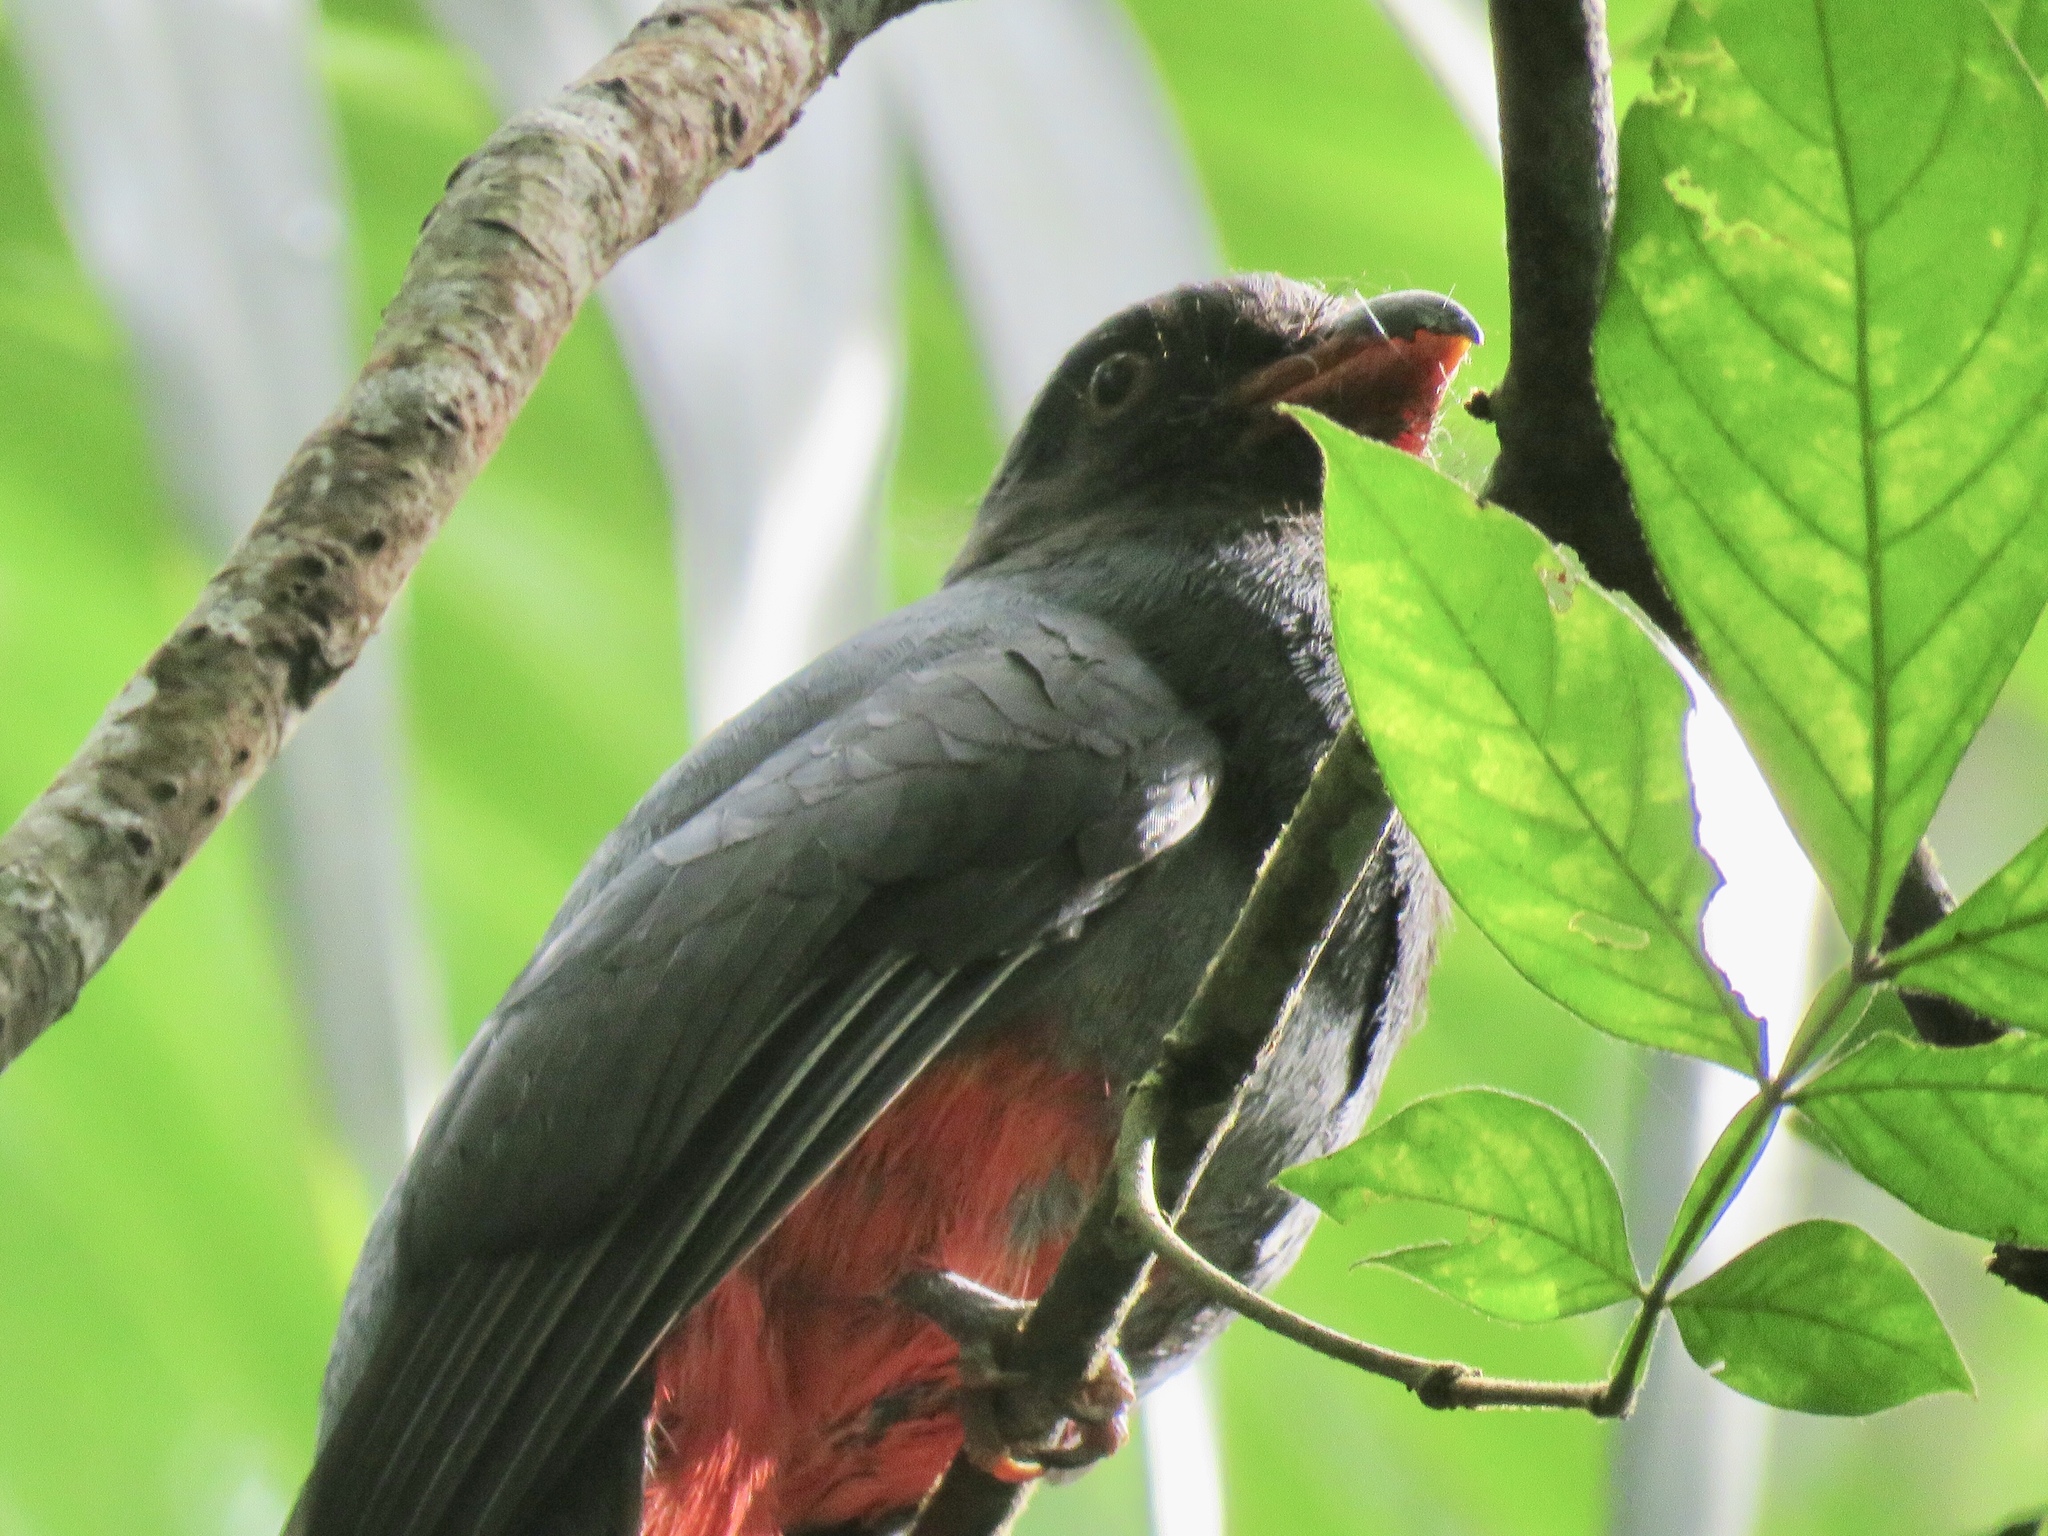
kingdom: Animalia
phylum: Chordata
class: Aves
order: Trogoniformes
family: Trogonidae
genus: Trogon
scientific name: Trogon massena
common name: Slaty-tailed trogon
